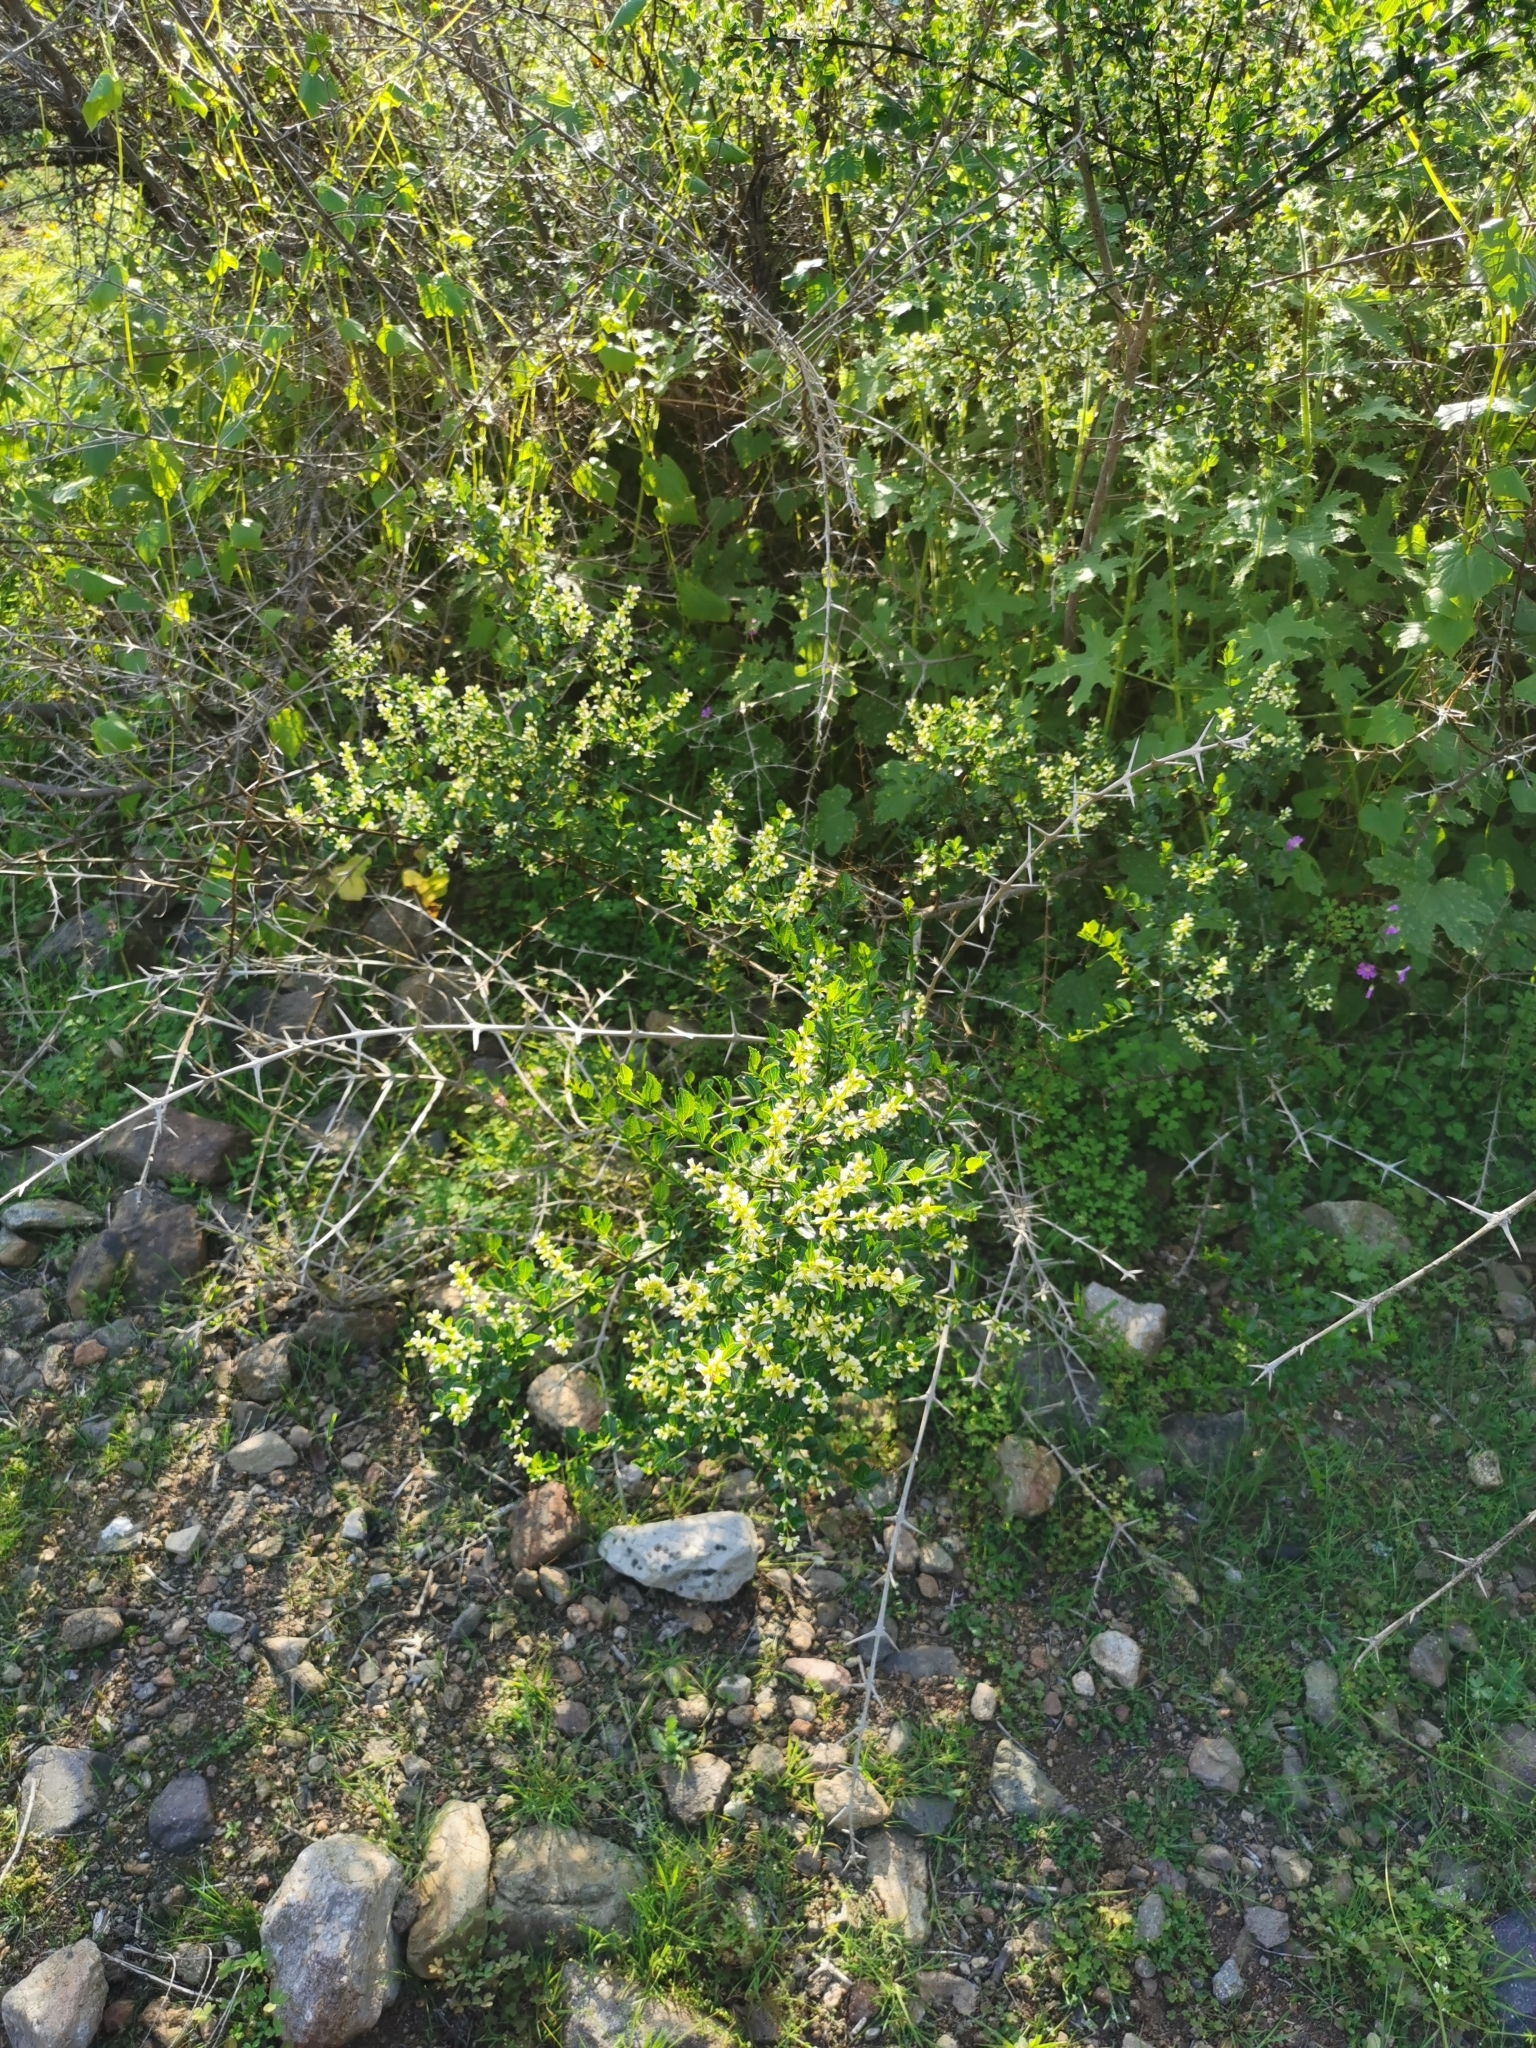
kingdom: Plantae
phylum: Tracheophyta
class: Magnoliopsida
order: Rosales
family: Rhamnaceae
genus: Retanilla
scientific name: Retanilla trinervia
